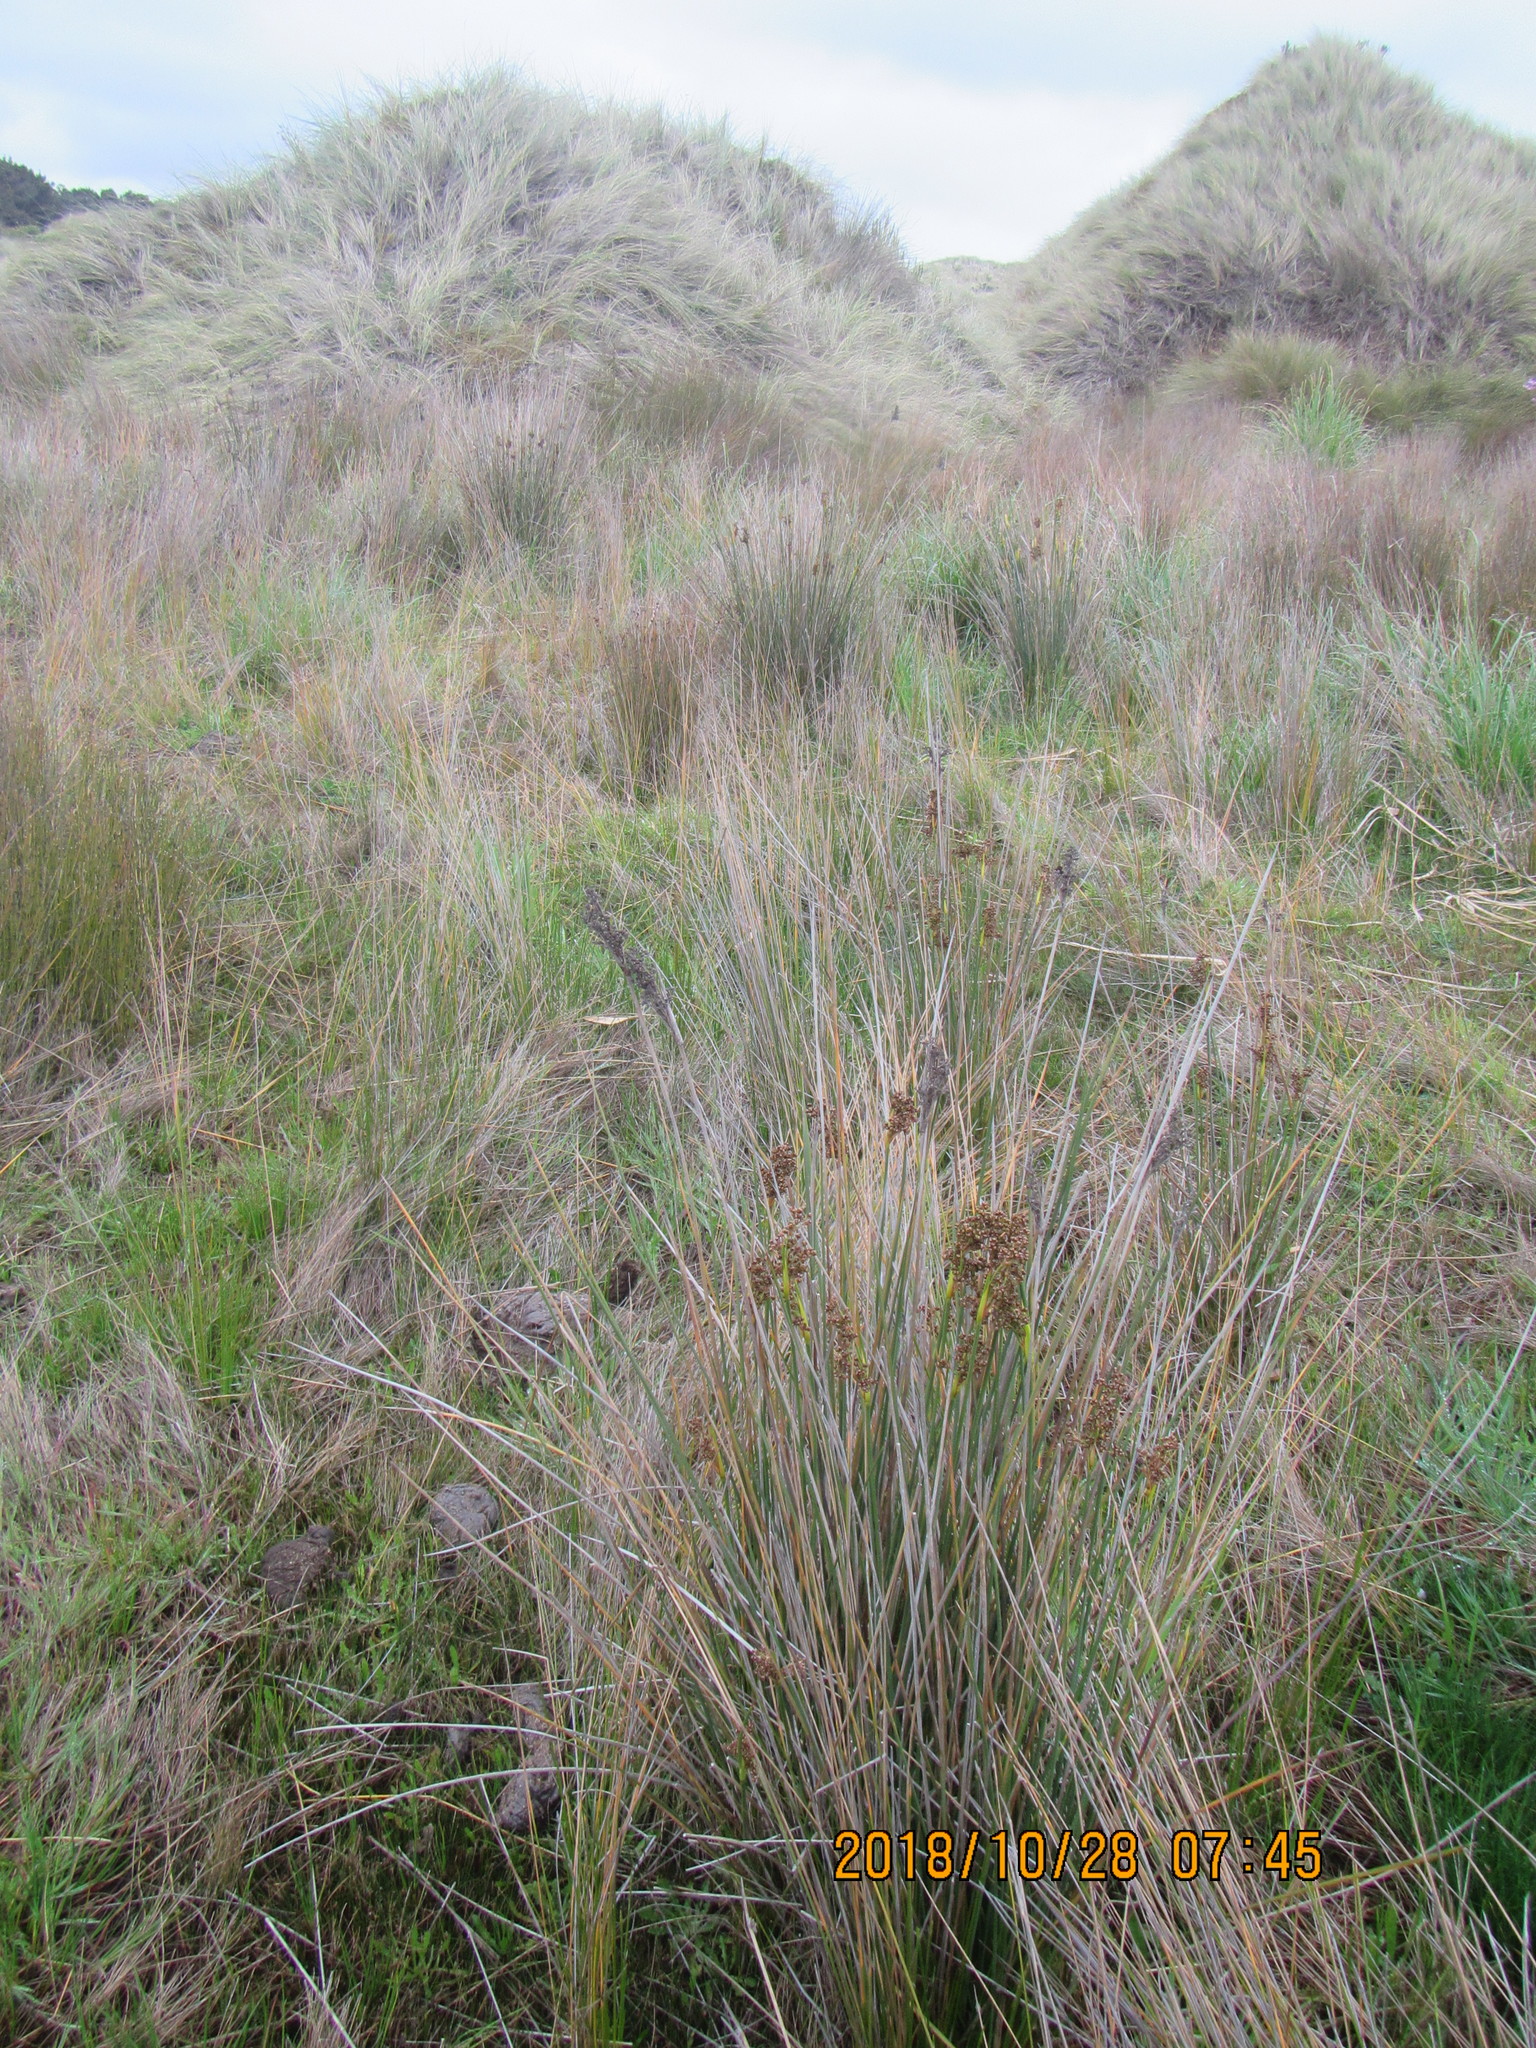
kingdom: Plantae
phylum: Tracheophyta
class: Liliopsida
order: Poales
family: Juncaceae
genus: Juncus
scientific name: Juncus acutus
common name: Sharp rush
